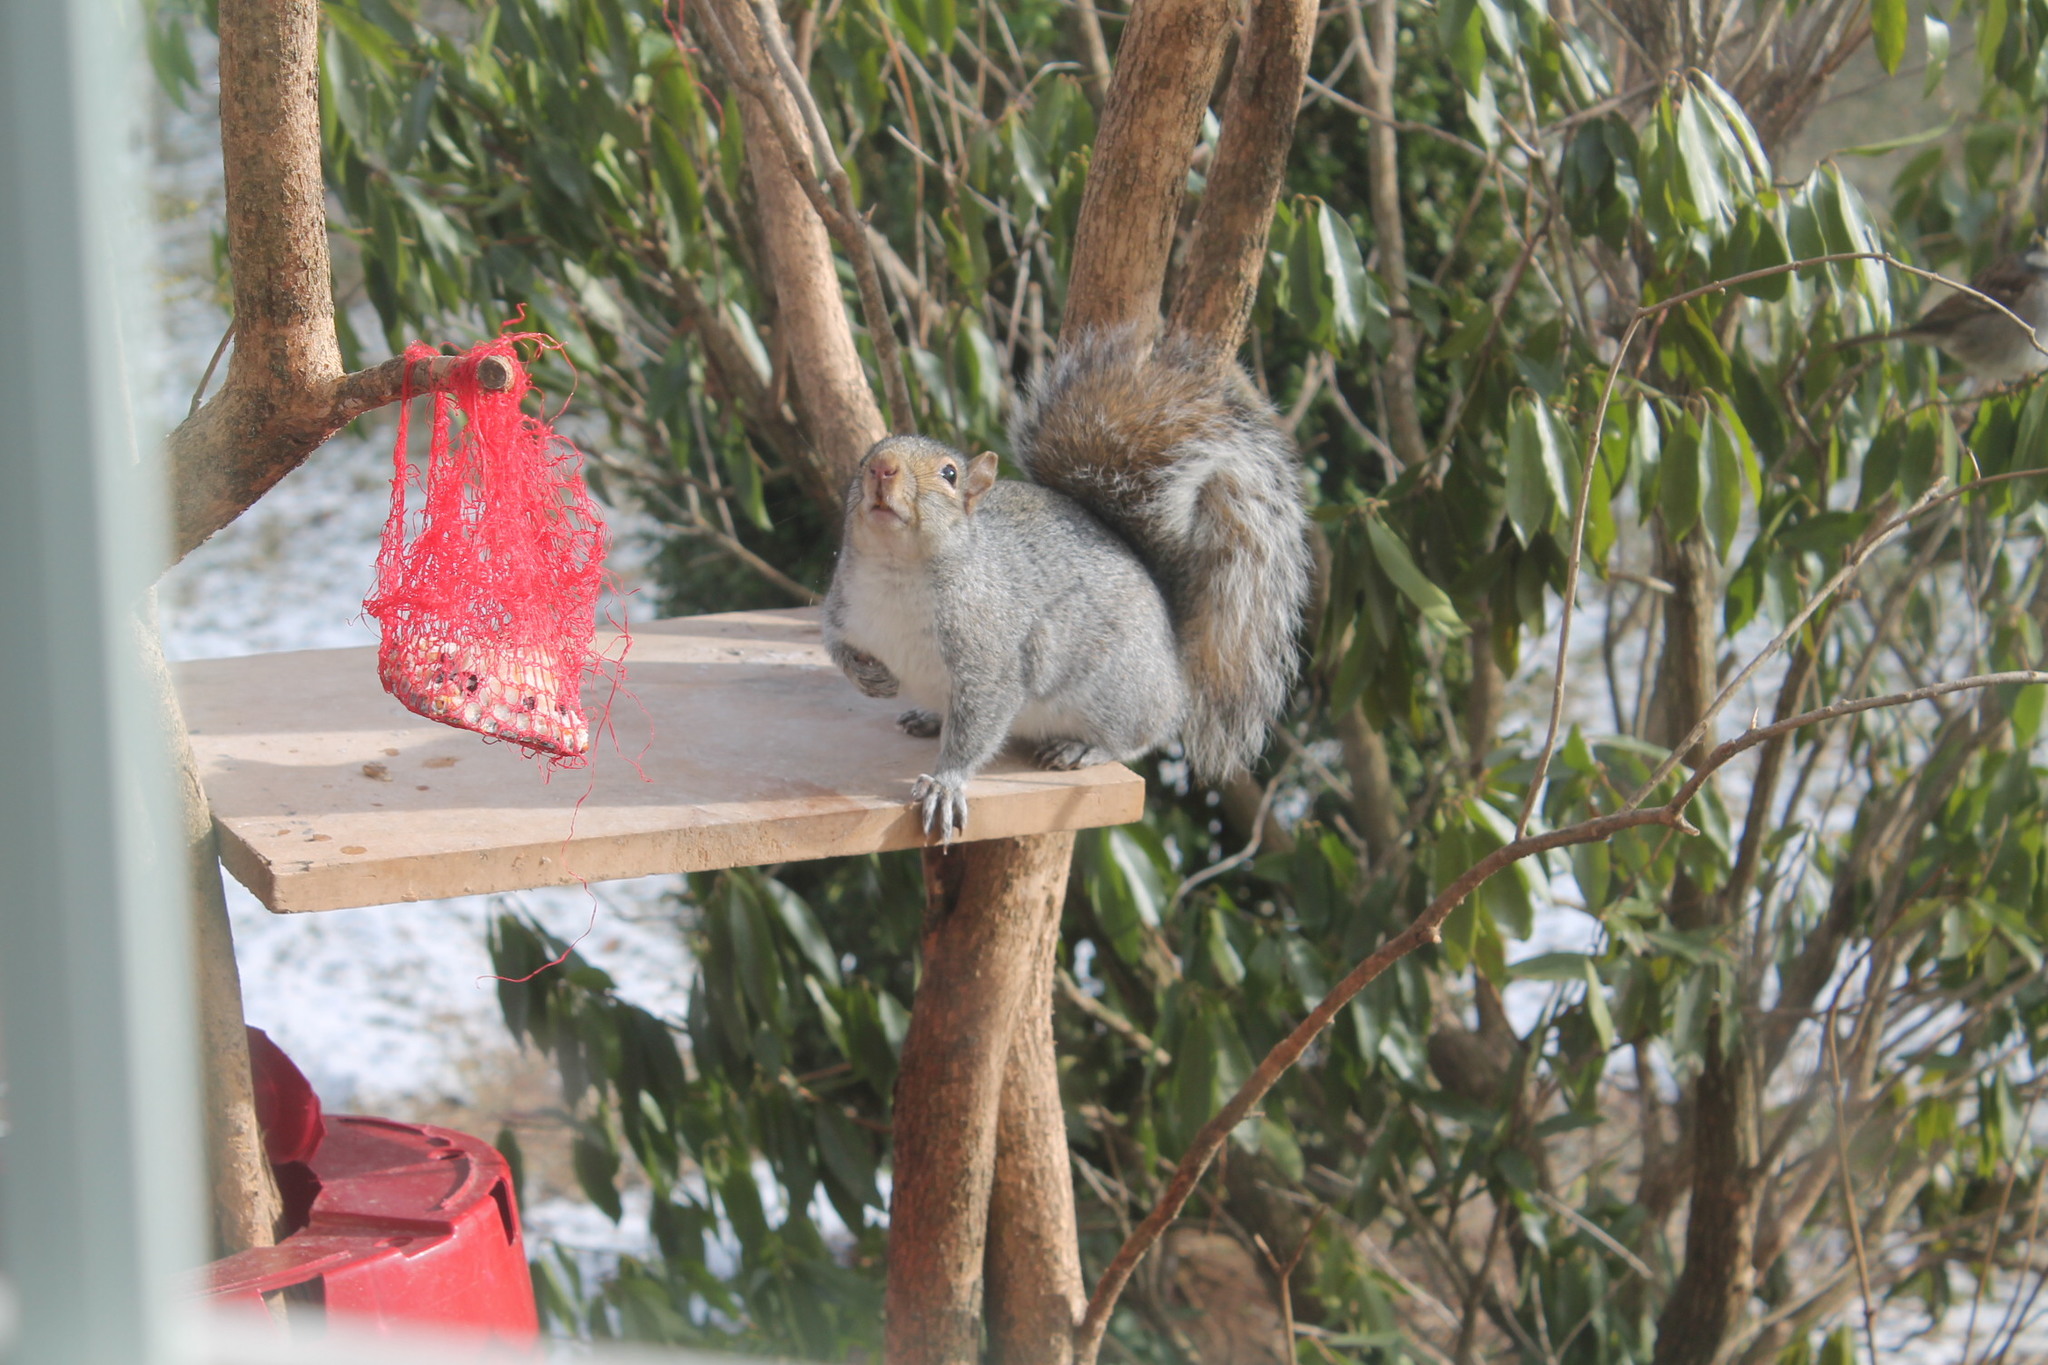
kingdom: Animalia
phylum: Chordata
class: Mammalia
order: Rodentia
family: Sciuridae
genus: Sciurus
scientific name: Sciurus carolinensis
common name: Eastern gray squirrel
